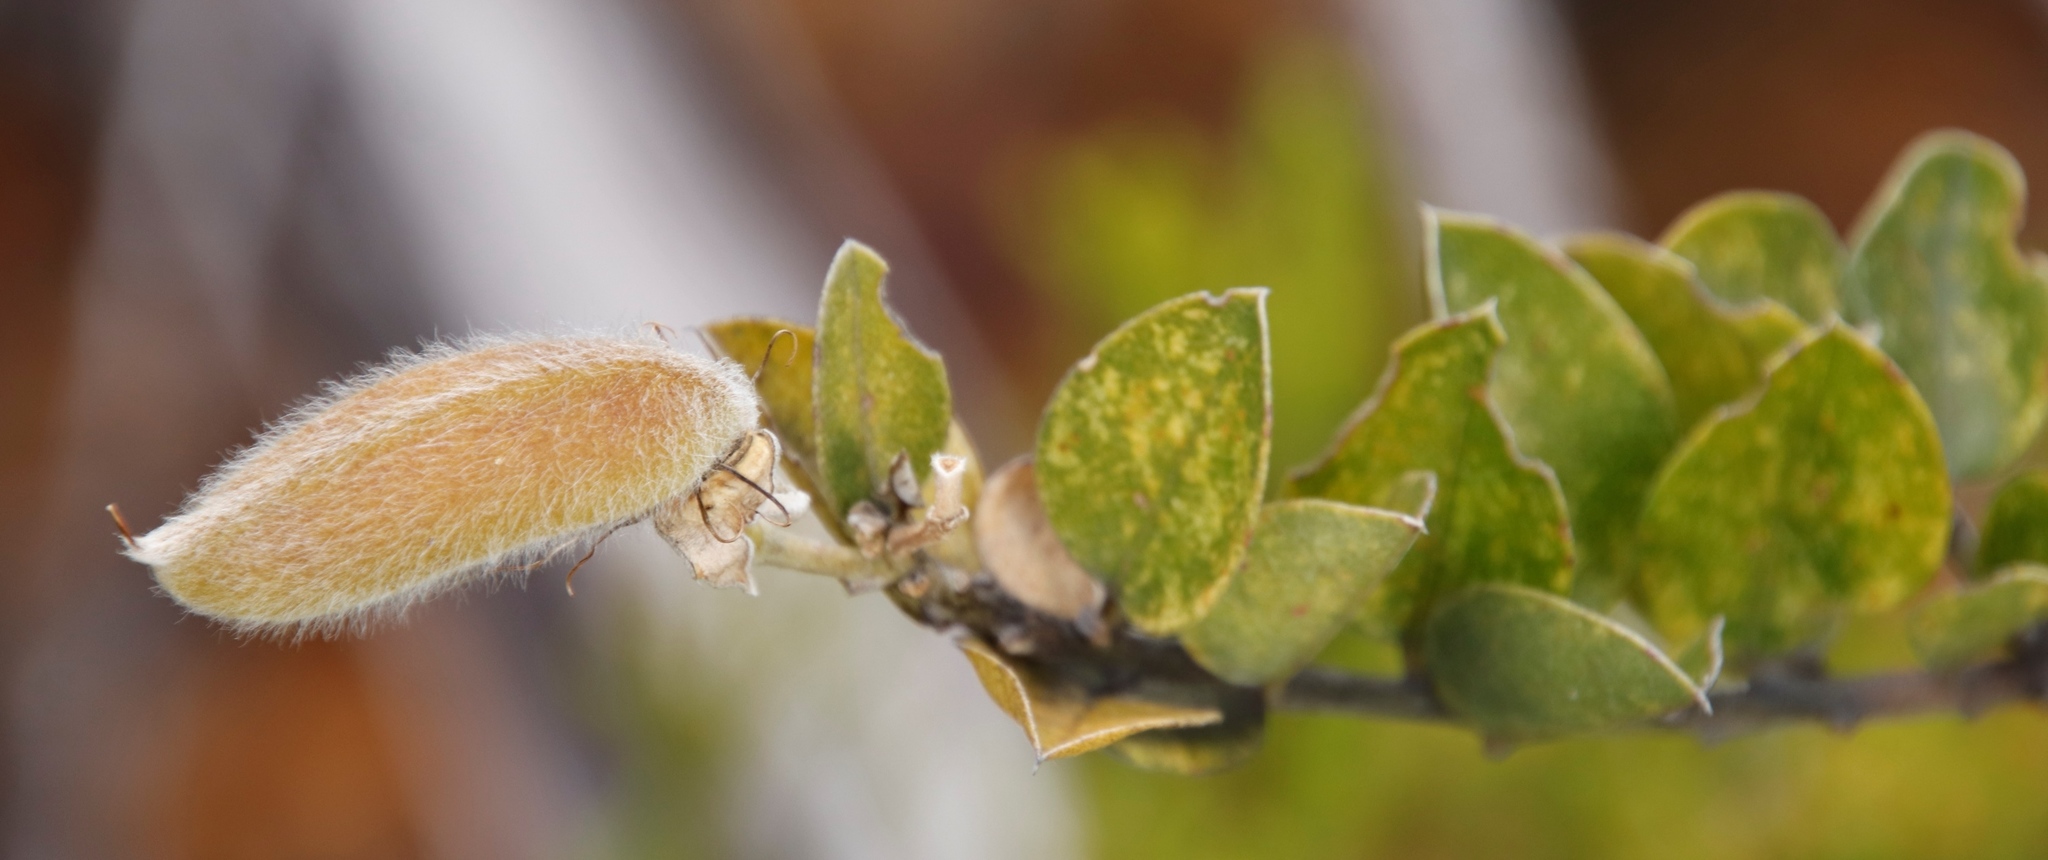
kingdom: Plantae
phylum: Tracheophyta
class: Magnoliopsida
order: Fabales
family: Fabaceae
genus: Podalyria
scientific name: Podalyria calyptrata
